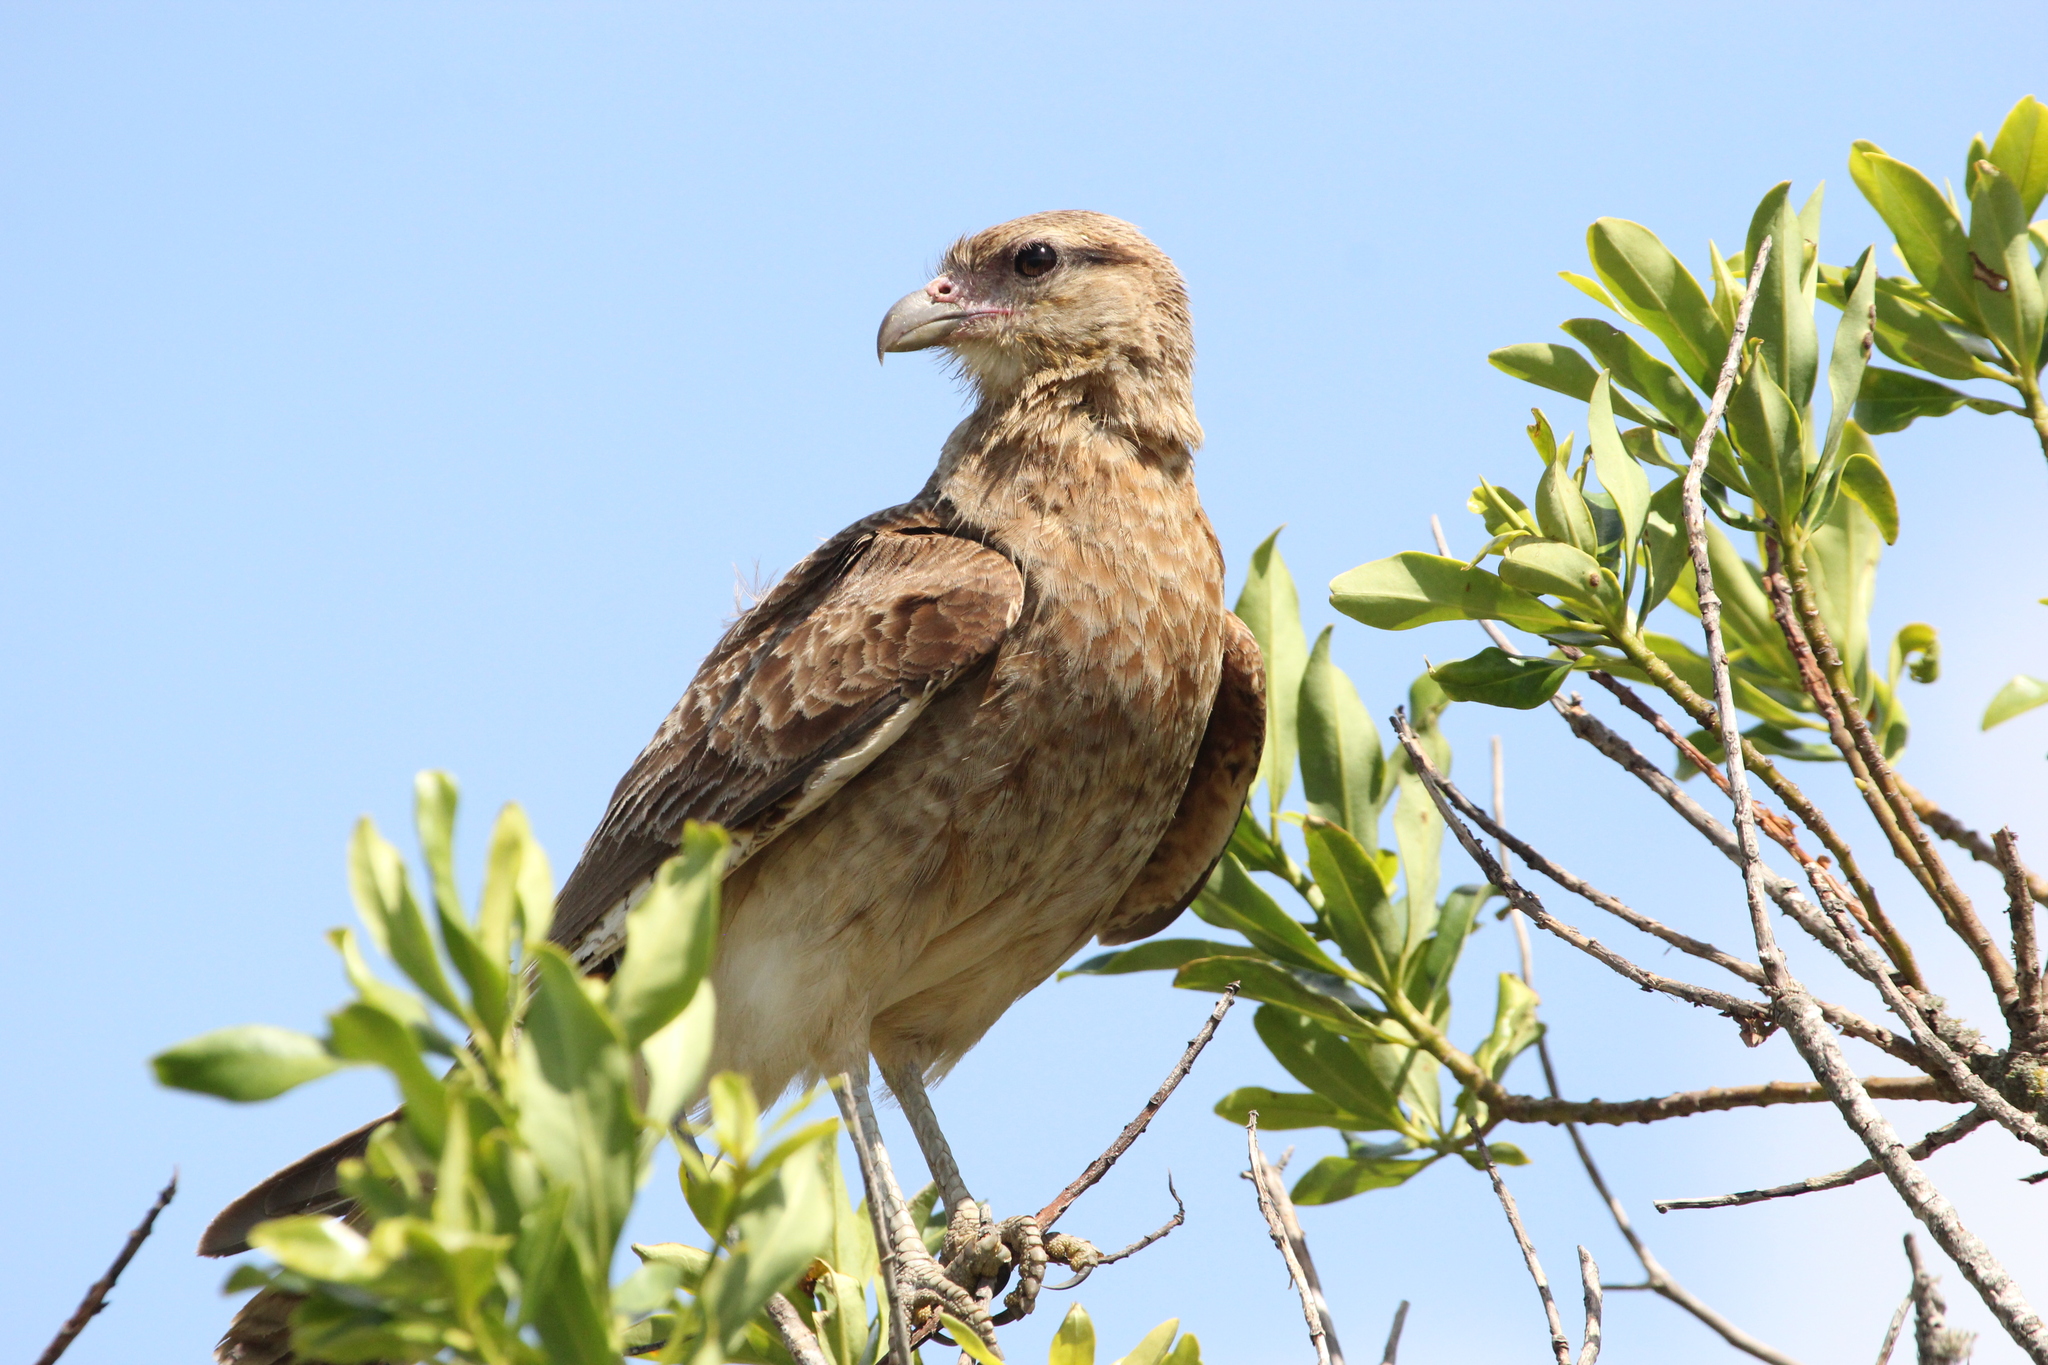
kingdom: Animalia
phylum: Chordata
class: Aves
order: Falconiformes
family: Falconidae
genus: Daptrius
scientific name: Daptrius
